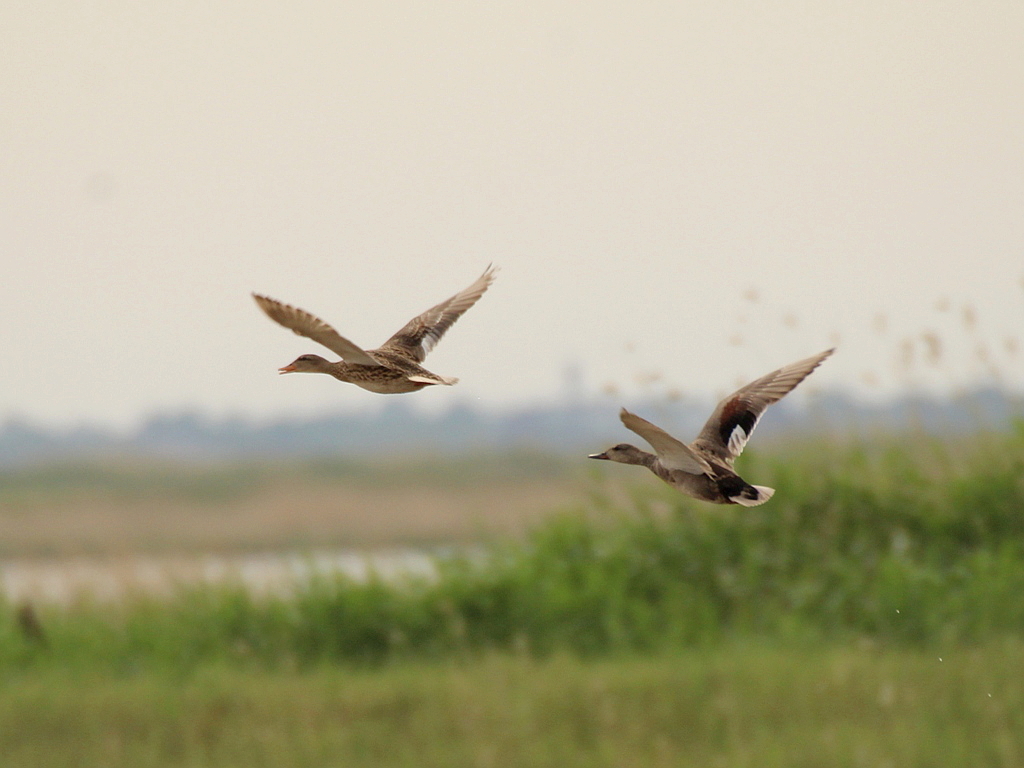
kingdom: Animalia
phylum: Chordata
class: Aves
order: Anseriformes
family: Anatidae
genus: Mareca
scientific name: Mareca strepera
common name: Gadwall
